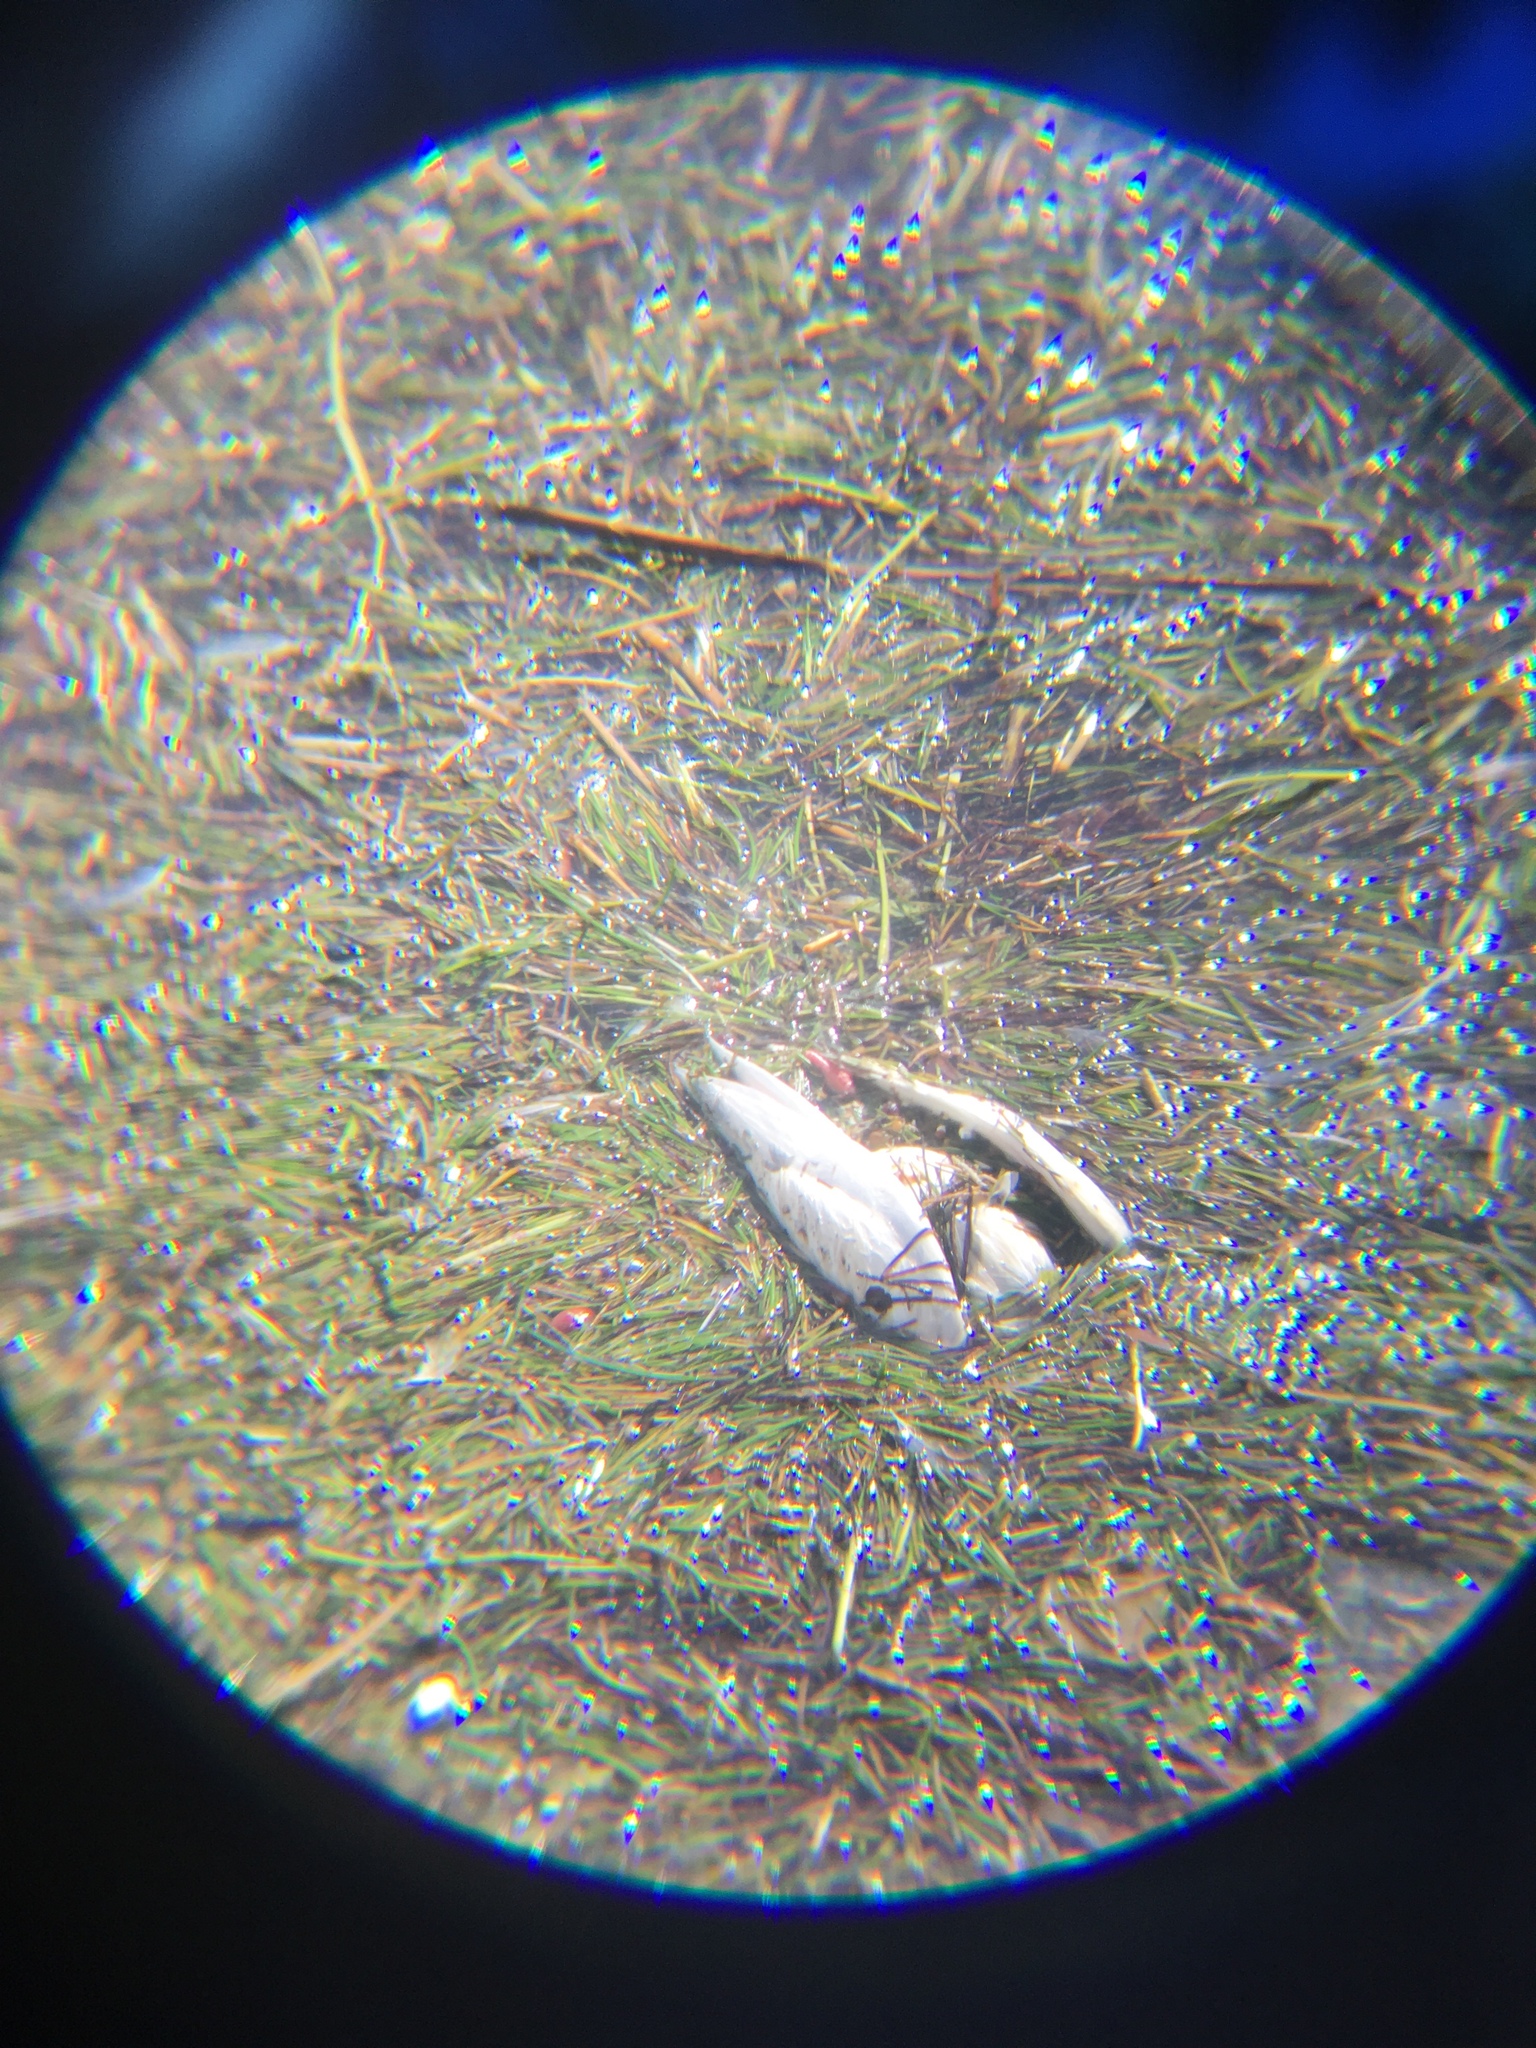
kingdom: Animalia
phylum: Chordata
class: Aves
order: Columbiformes
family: Columbidae
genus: Columba
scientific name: Columba livia
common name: Rock pigeon
